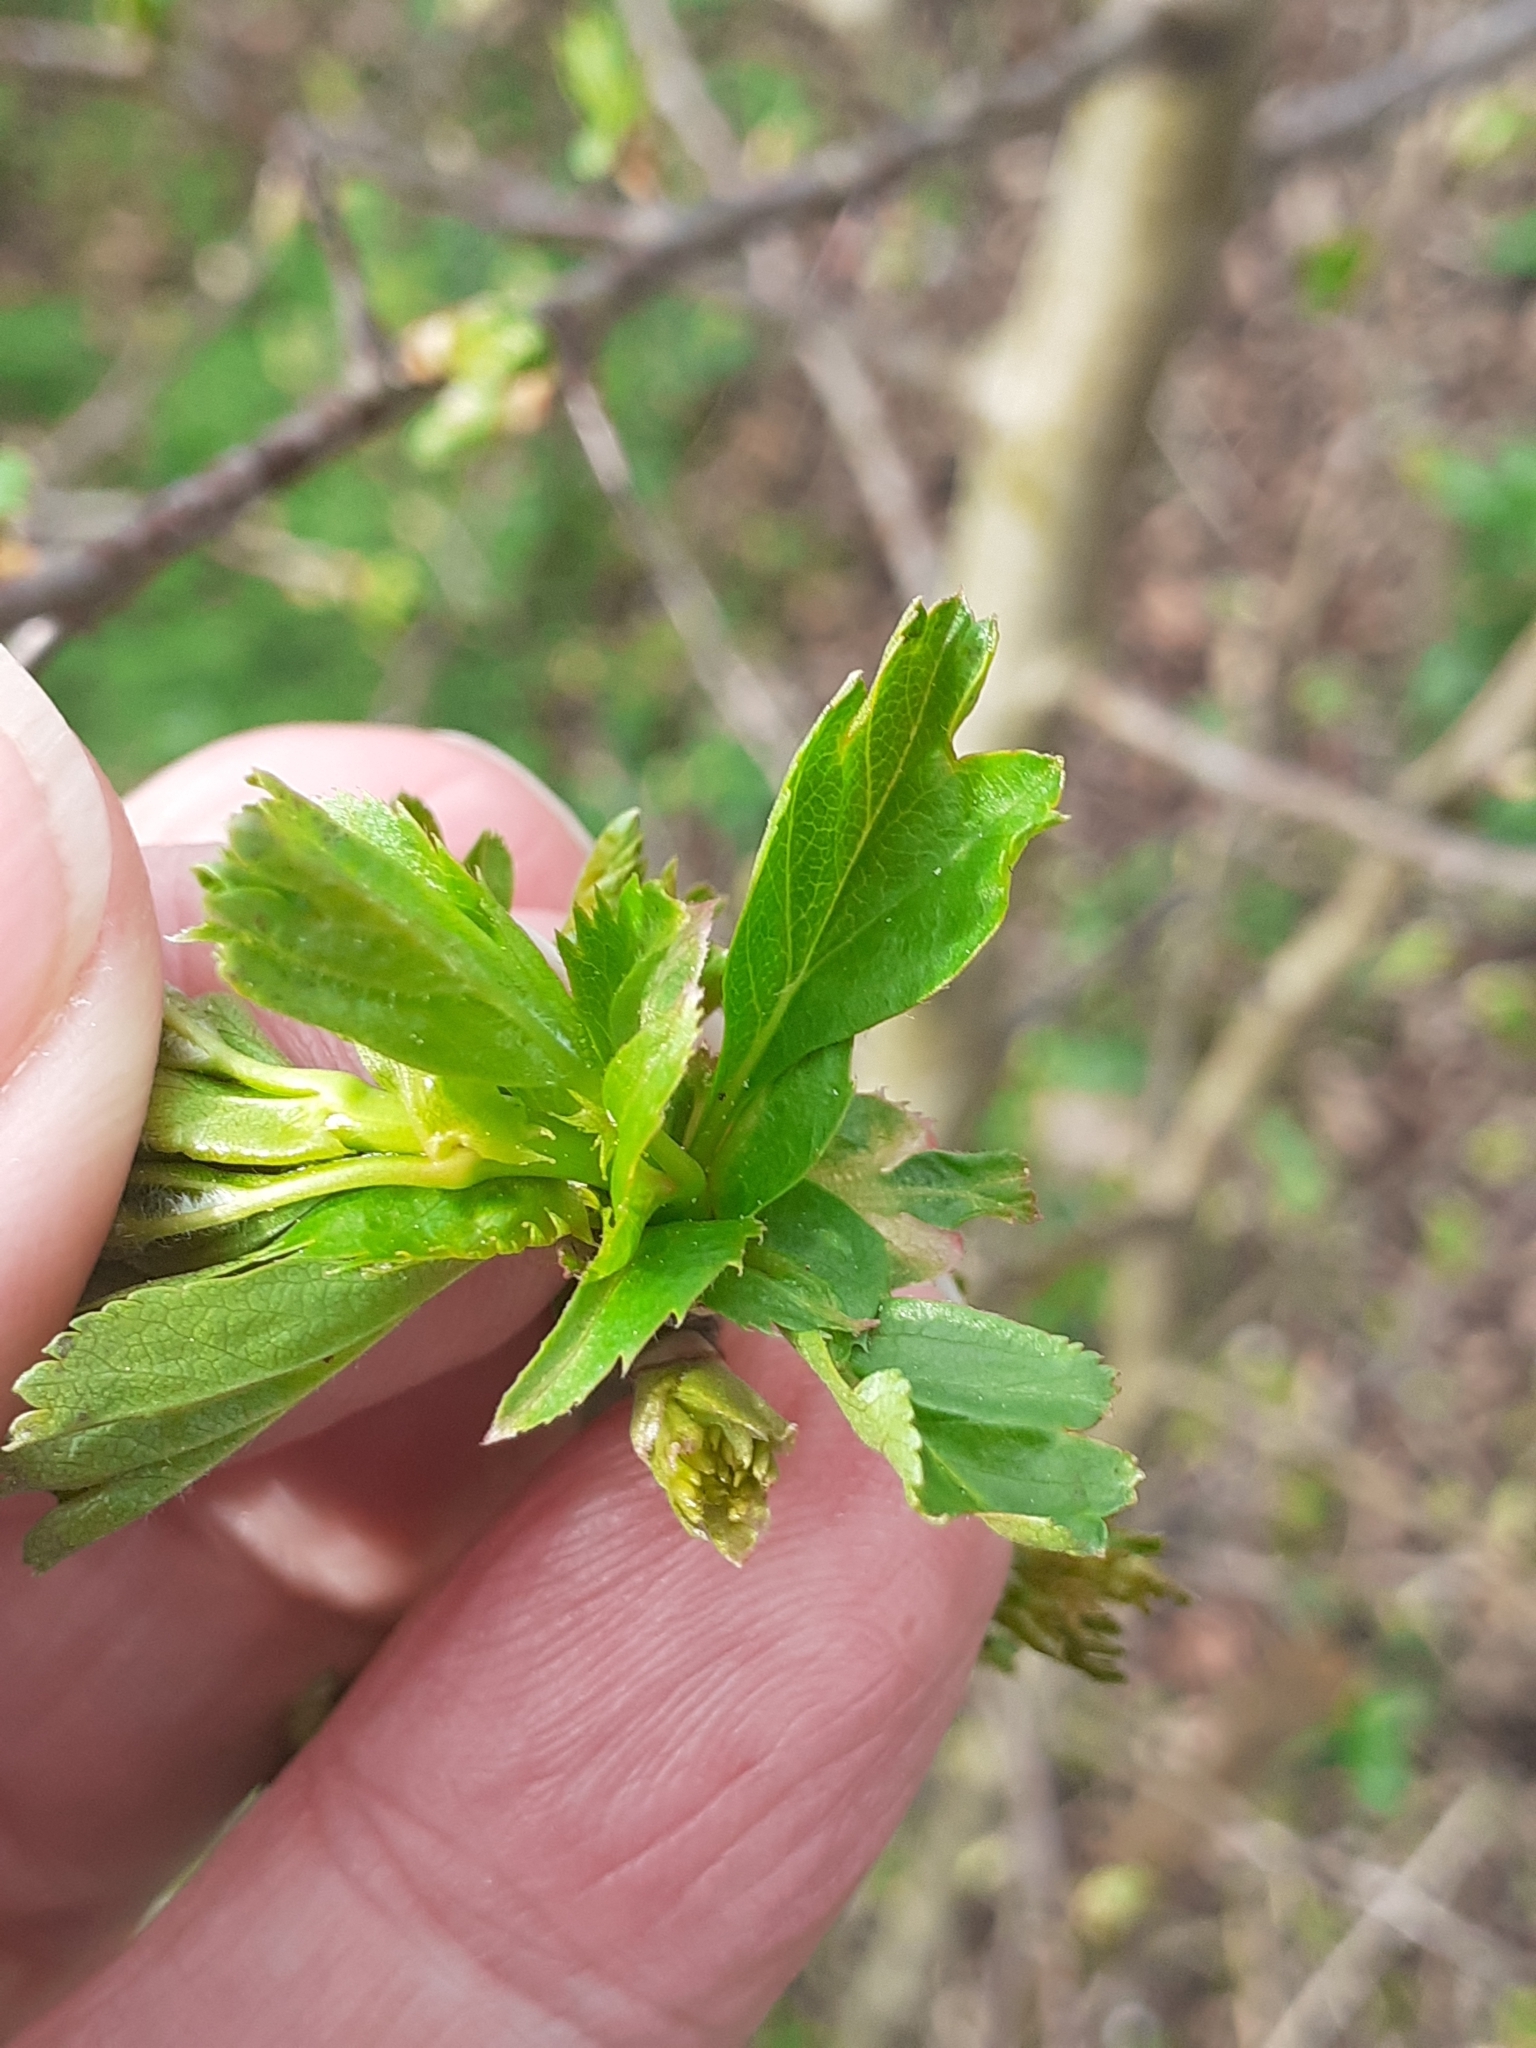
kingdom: Plantae
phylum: Tracheophyta
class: Magnoliopsida
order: Rosales
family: Rosaceae
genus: Crataegus
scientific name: Crataegus monogyna
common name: Hawthorn
